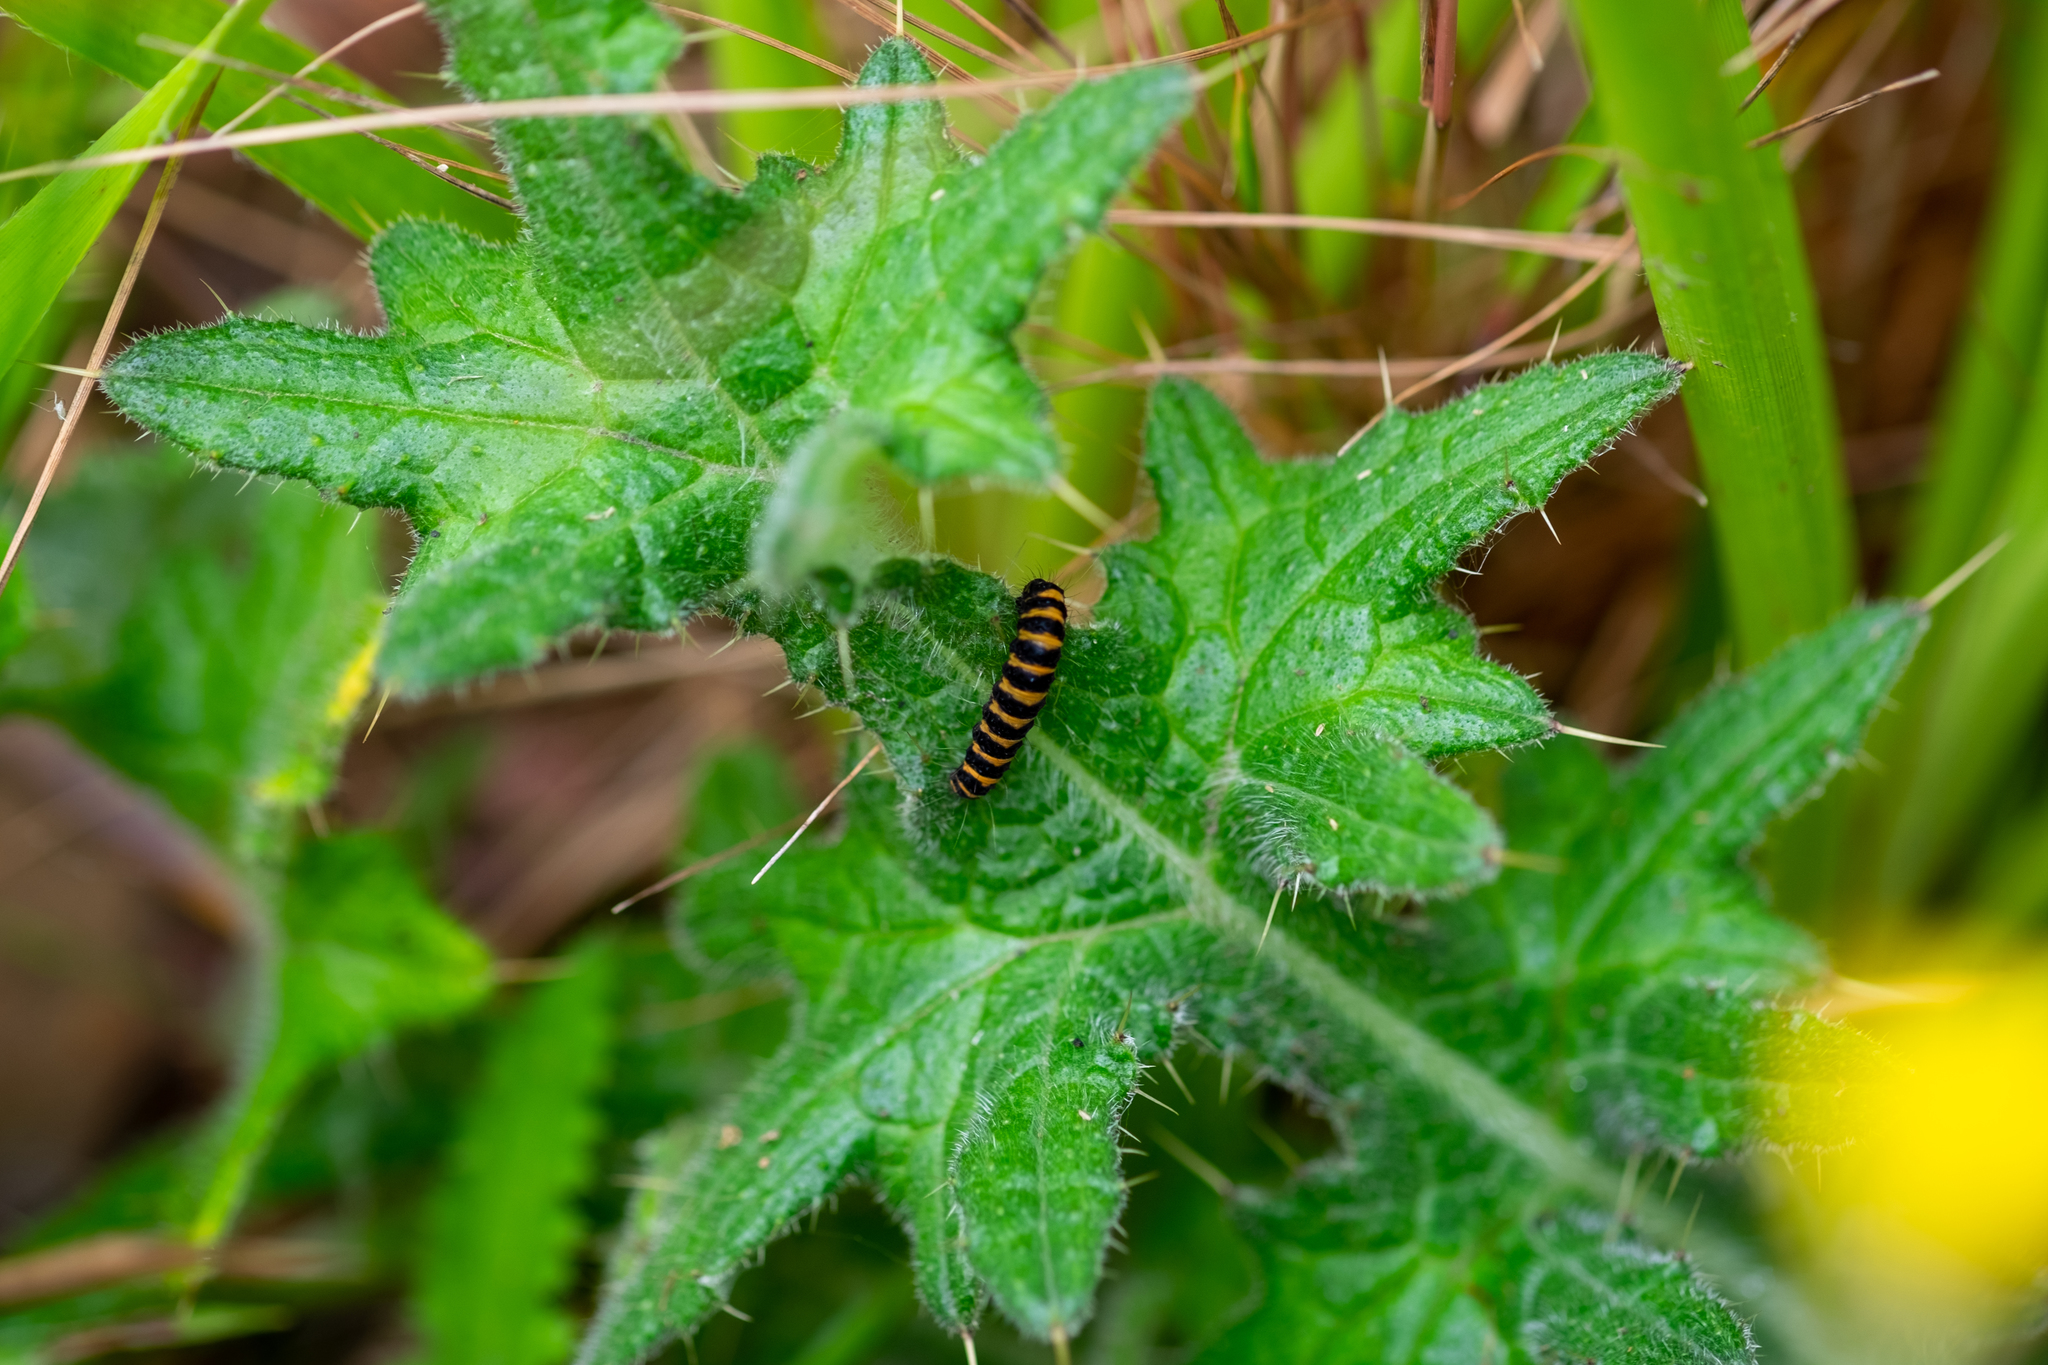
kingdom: Animalia
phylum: Arthropoda
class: Insecta
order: Lepidoptera
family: Erebidae
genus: Tyria
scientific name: Tyria jacobaeae
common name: Cinnabar
